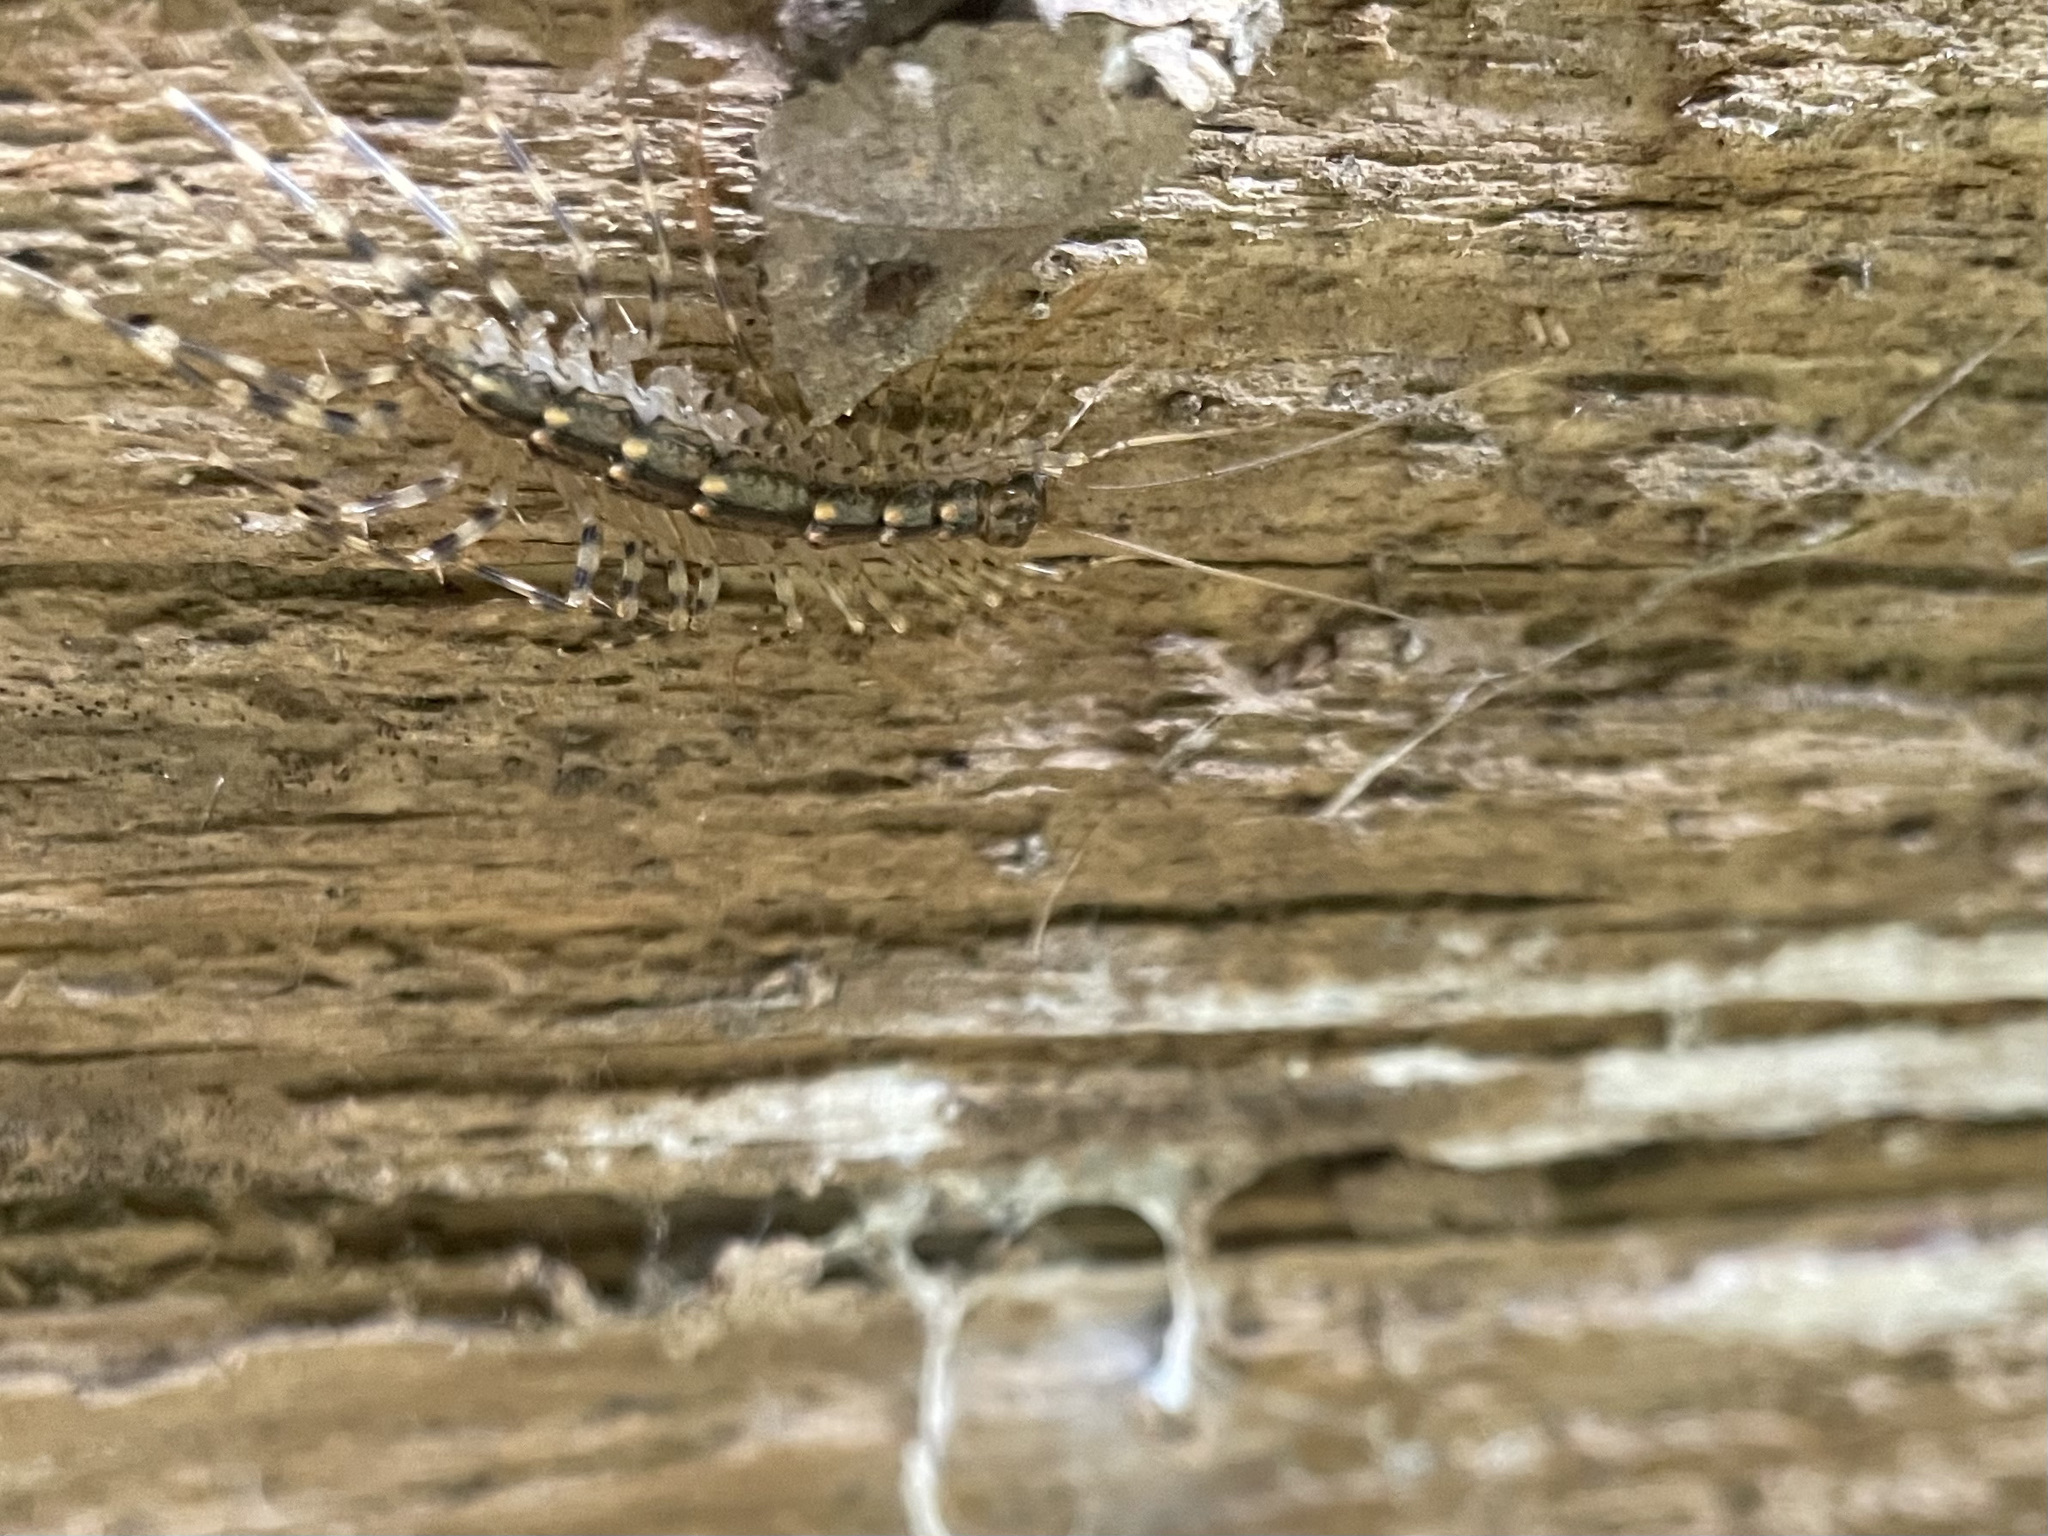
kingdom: Animalia
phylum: Arthropoda
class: Chilopoda
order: Scutigeromorpha
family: Scutigeridae
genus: Scutigera
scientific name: Scutigera coleoptrata
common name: House centipede
